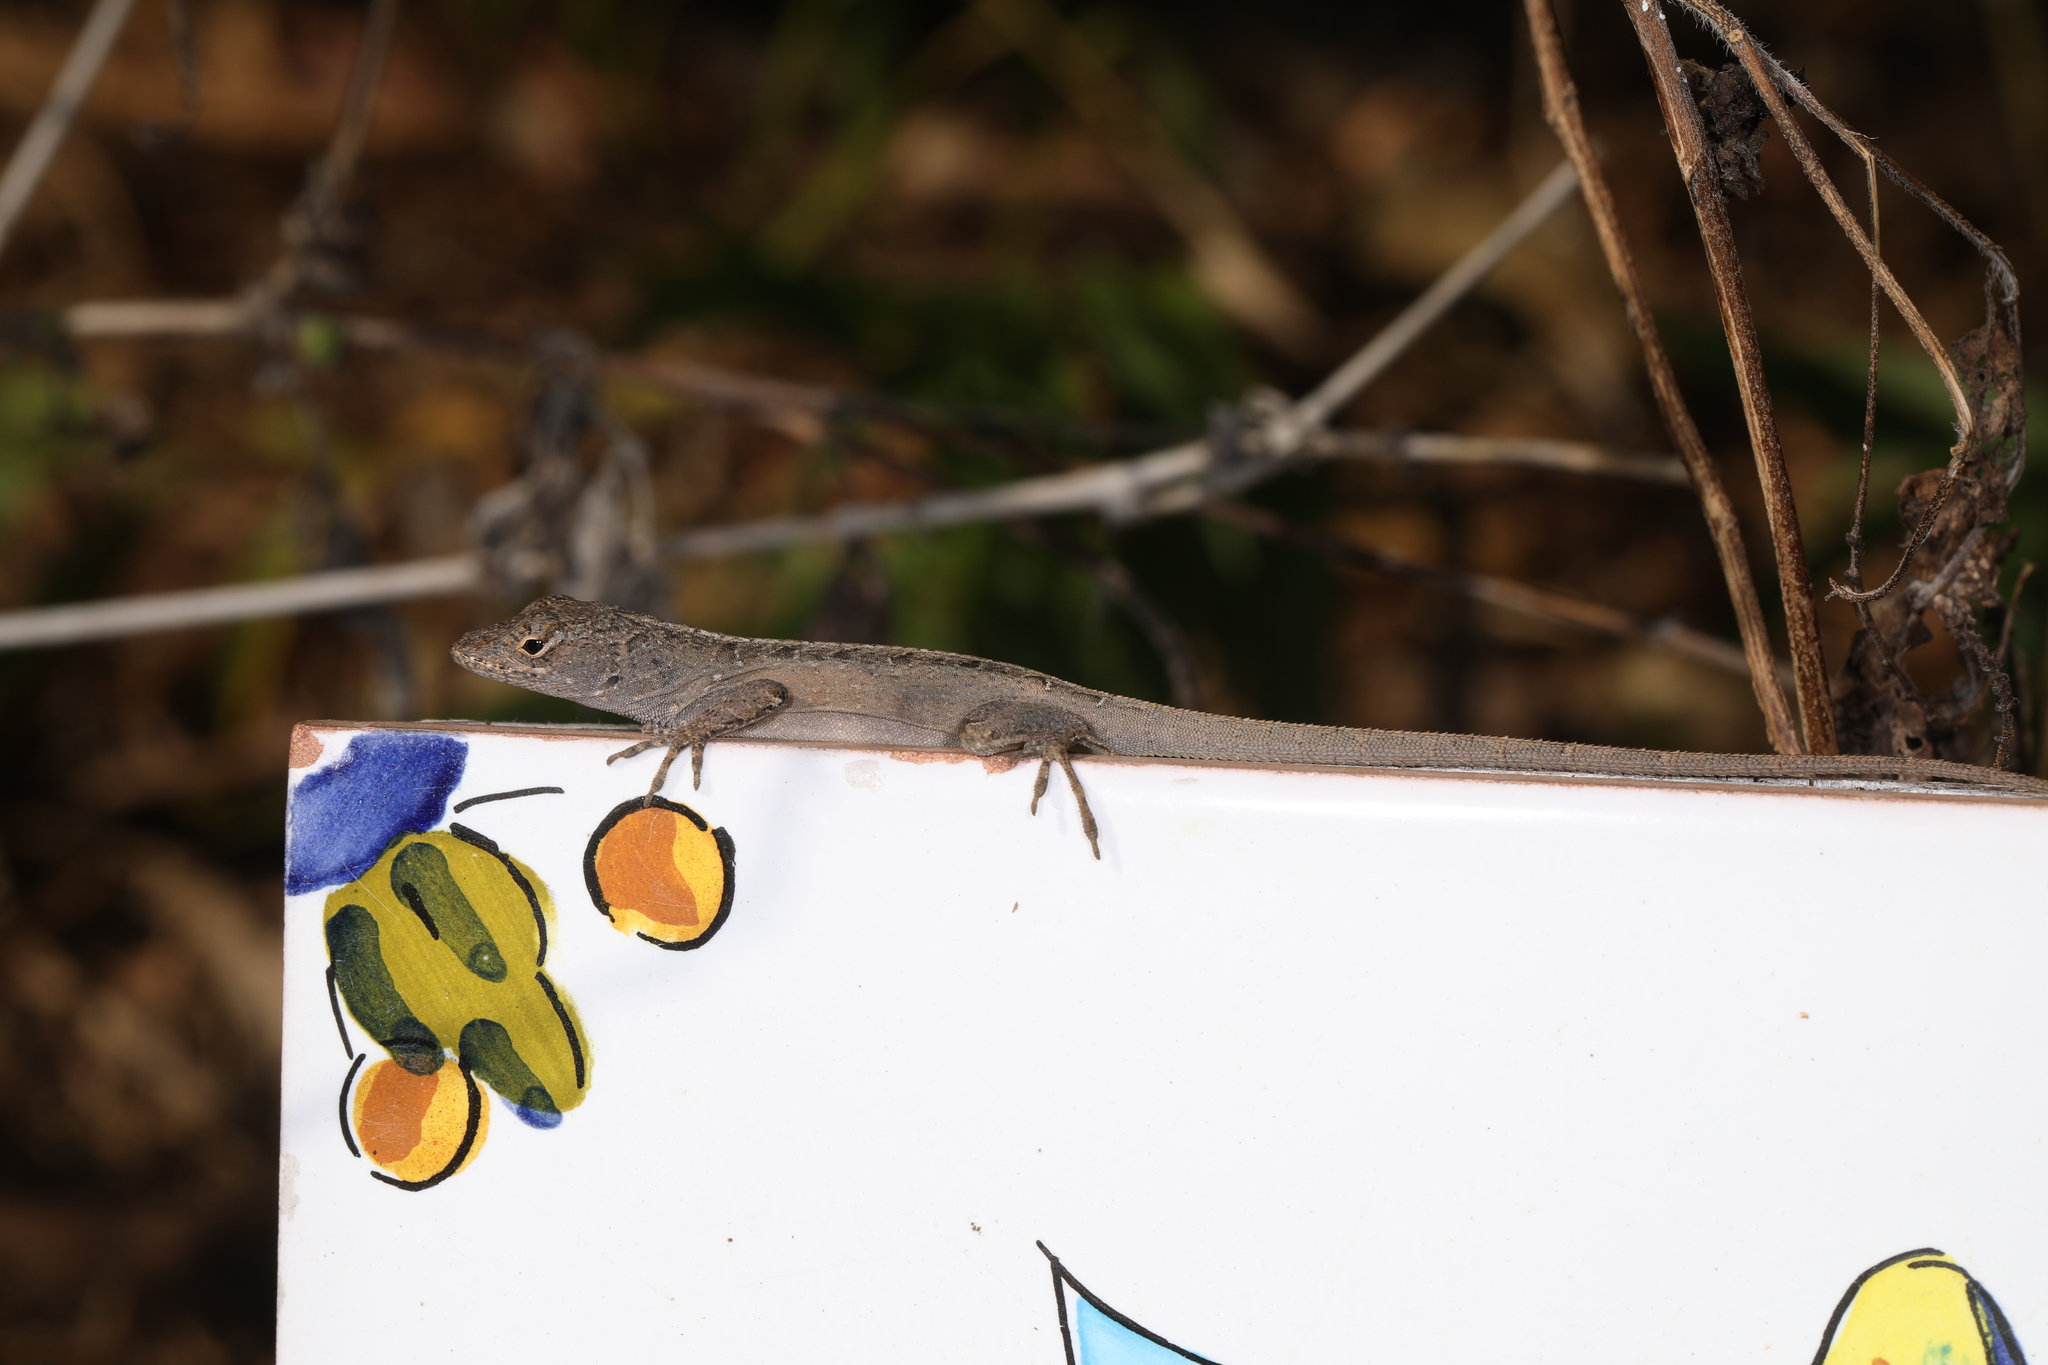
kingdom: Animalia
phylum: Chordata
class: Squamata
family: Dactyloidae
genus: Anolis
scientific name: Anolis sagrei
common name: Brown anole
